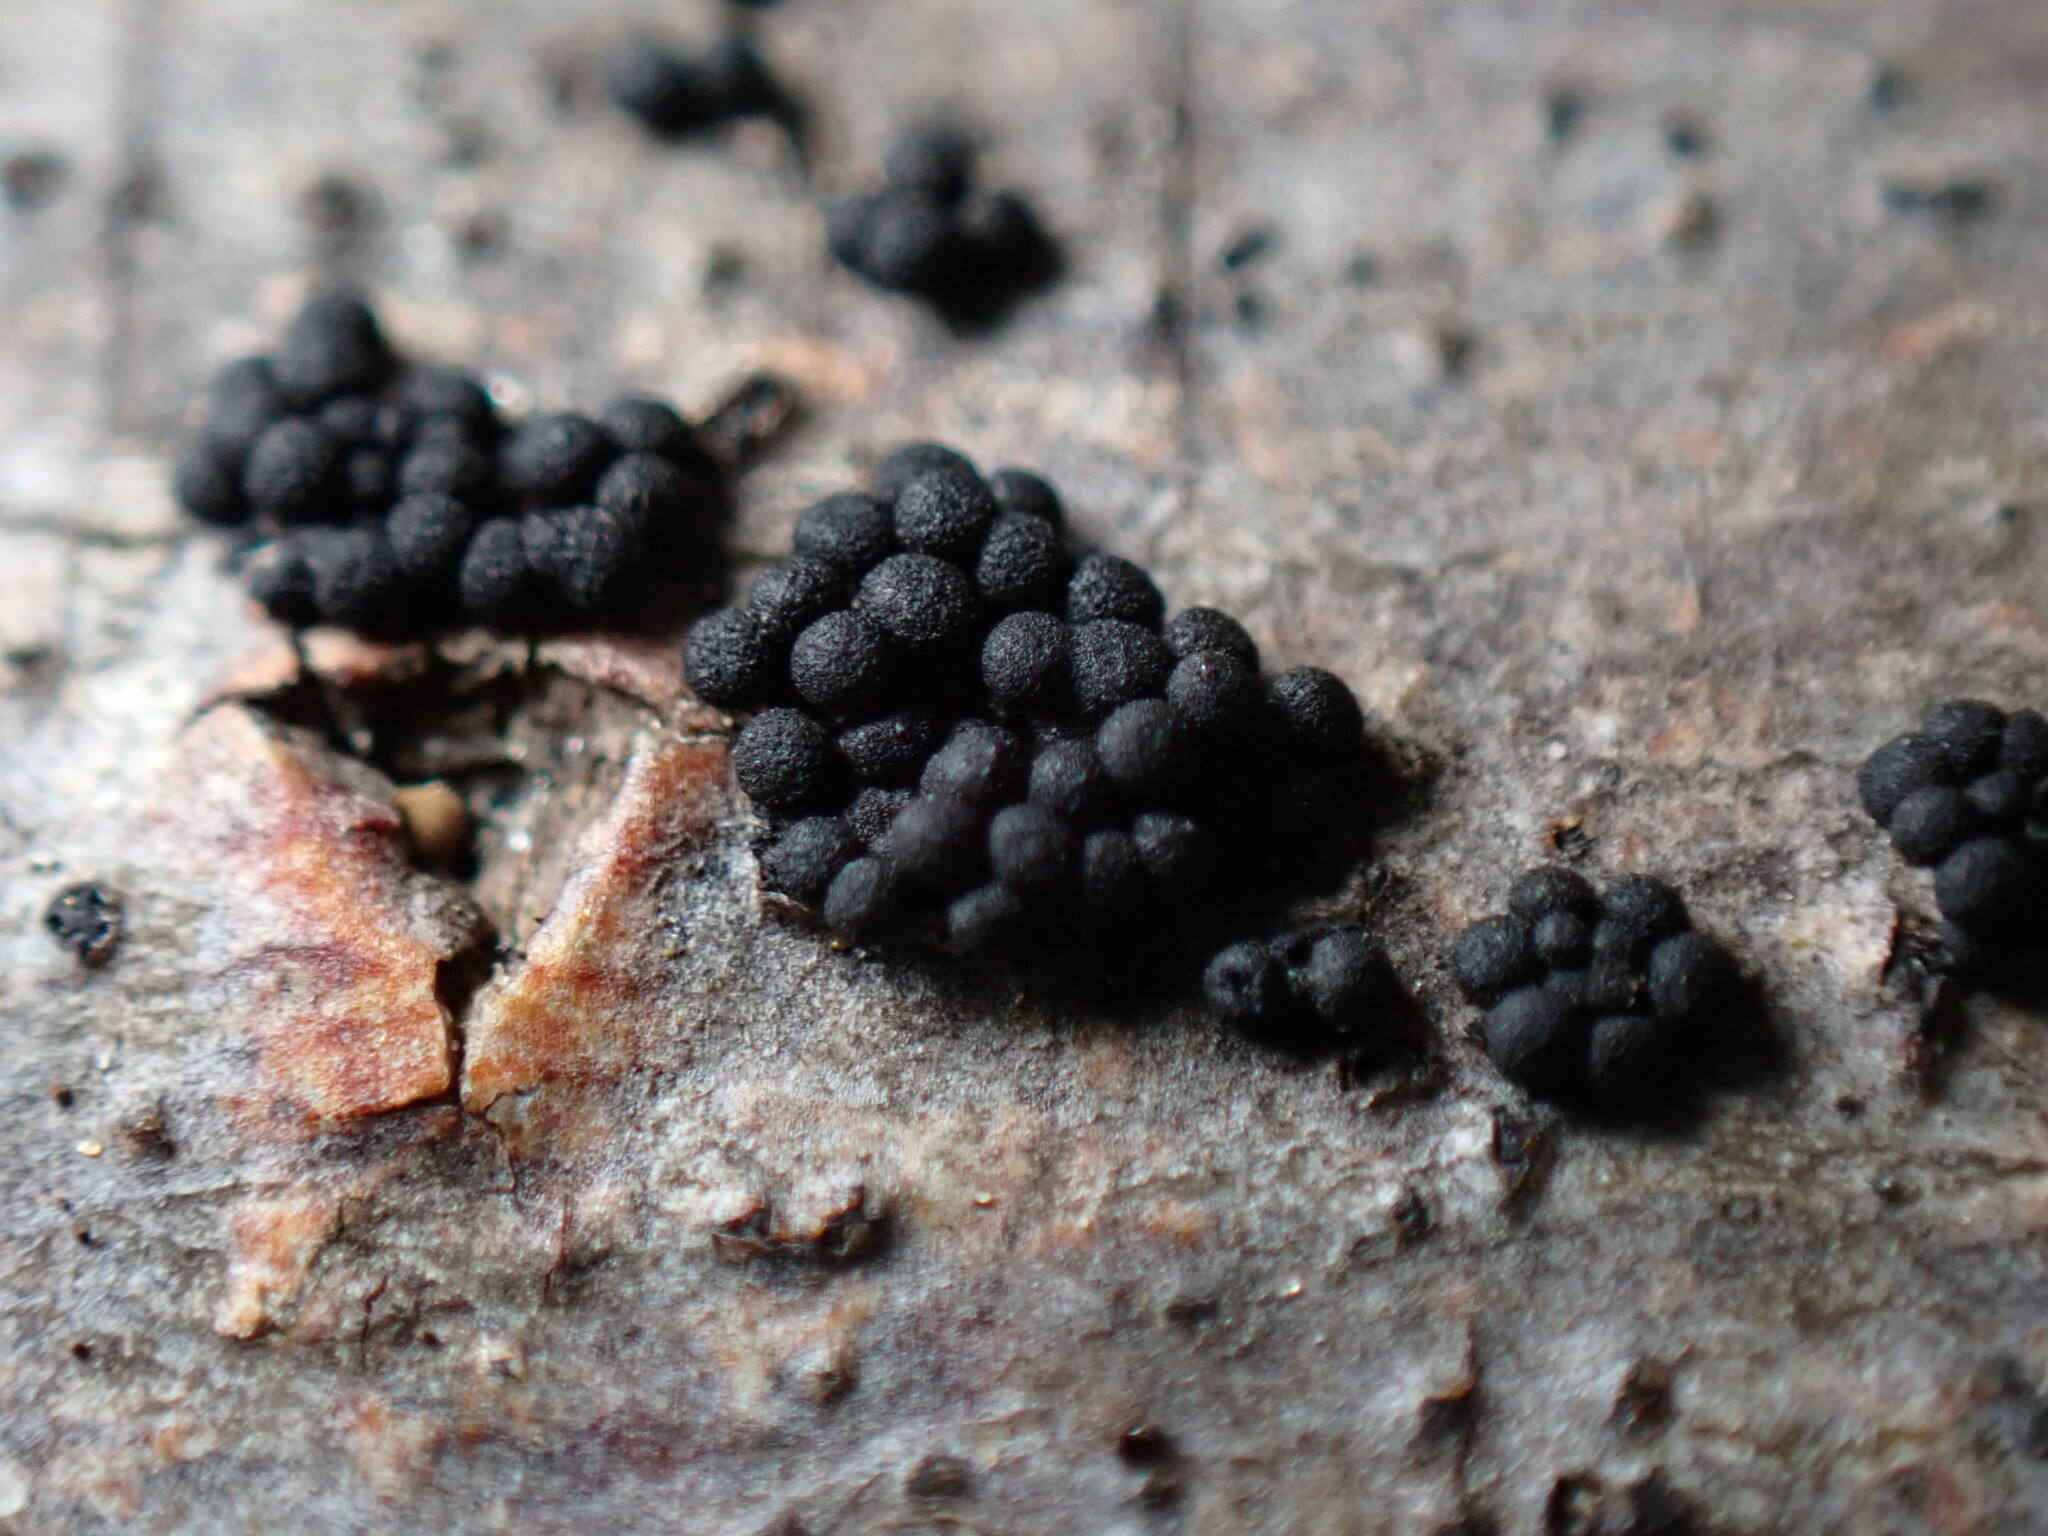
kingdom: Fungi
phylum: Ascomycota
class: Sordariomycetes
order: Coronophorales
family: Nitschkiaceae
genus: Fracchiaea
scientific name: Fracchiaea broomeana
